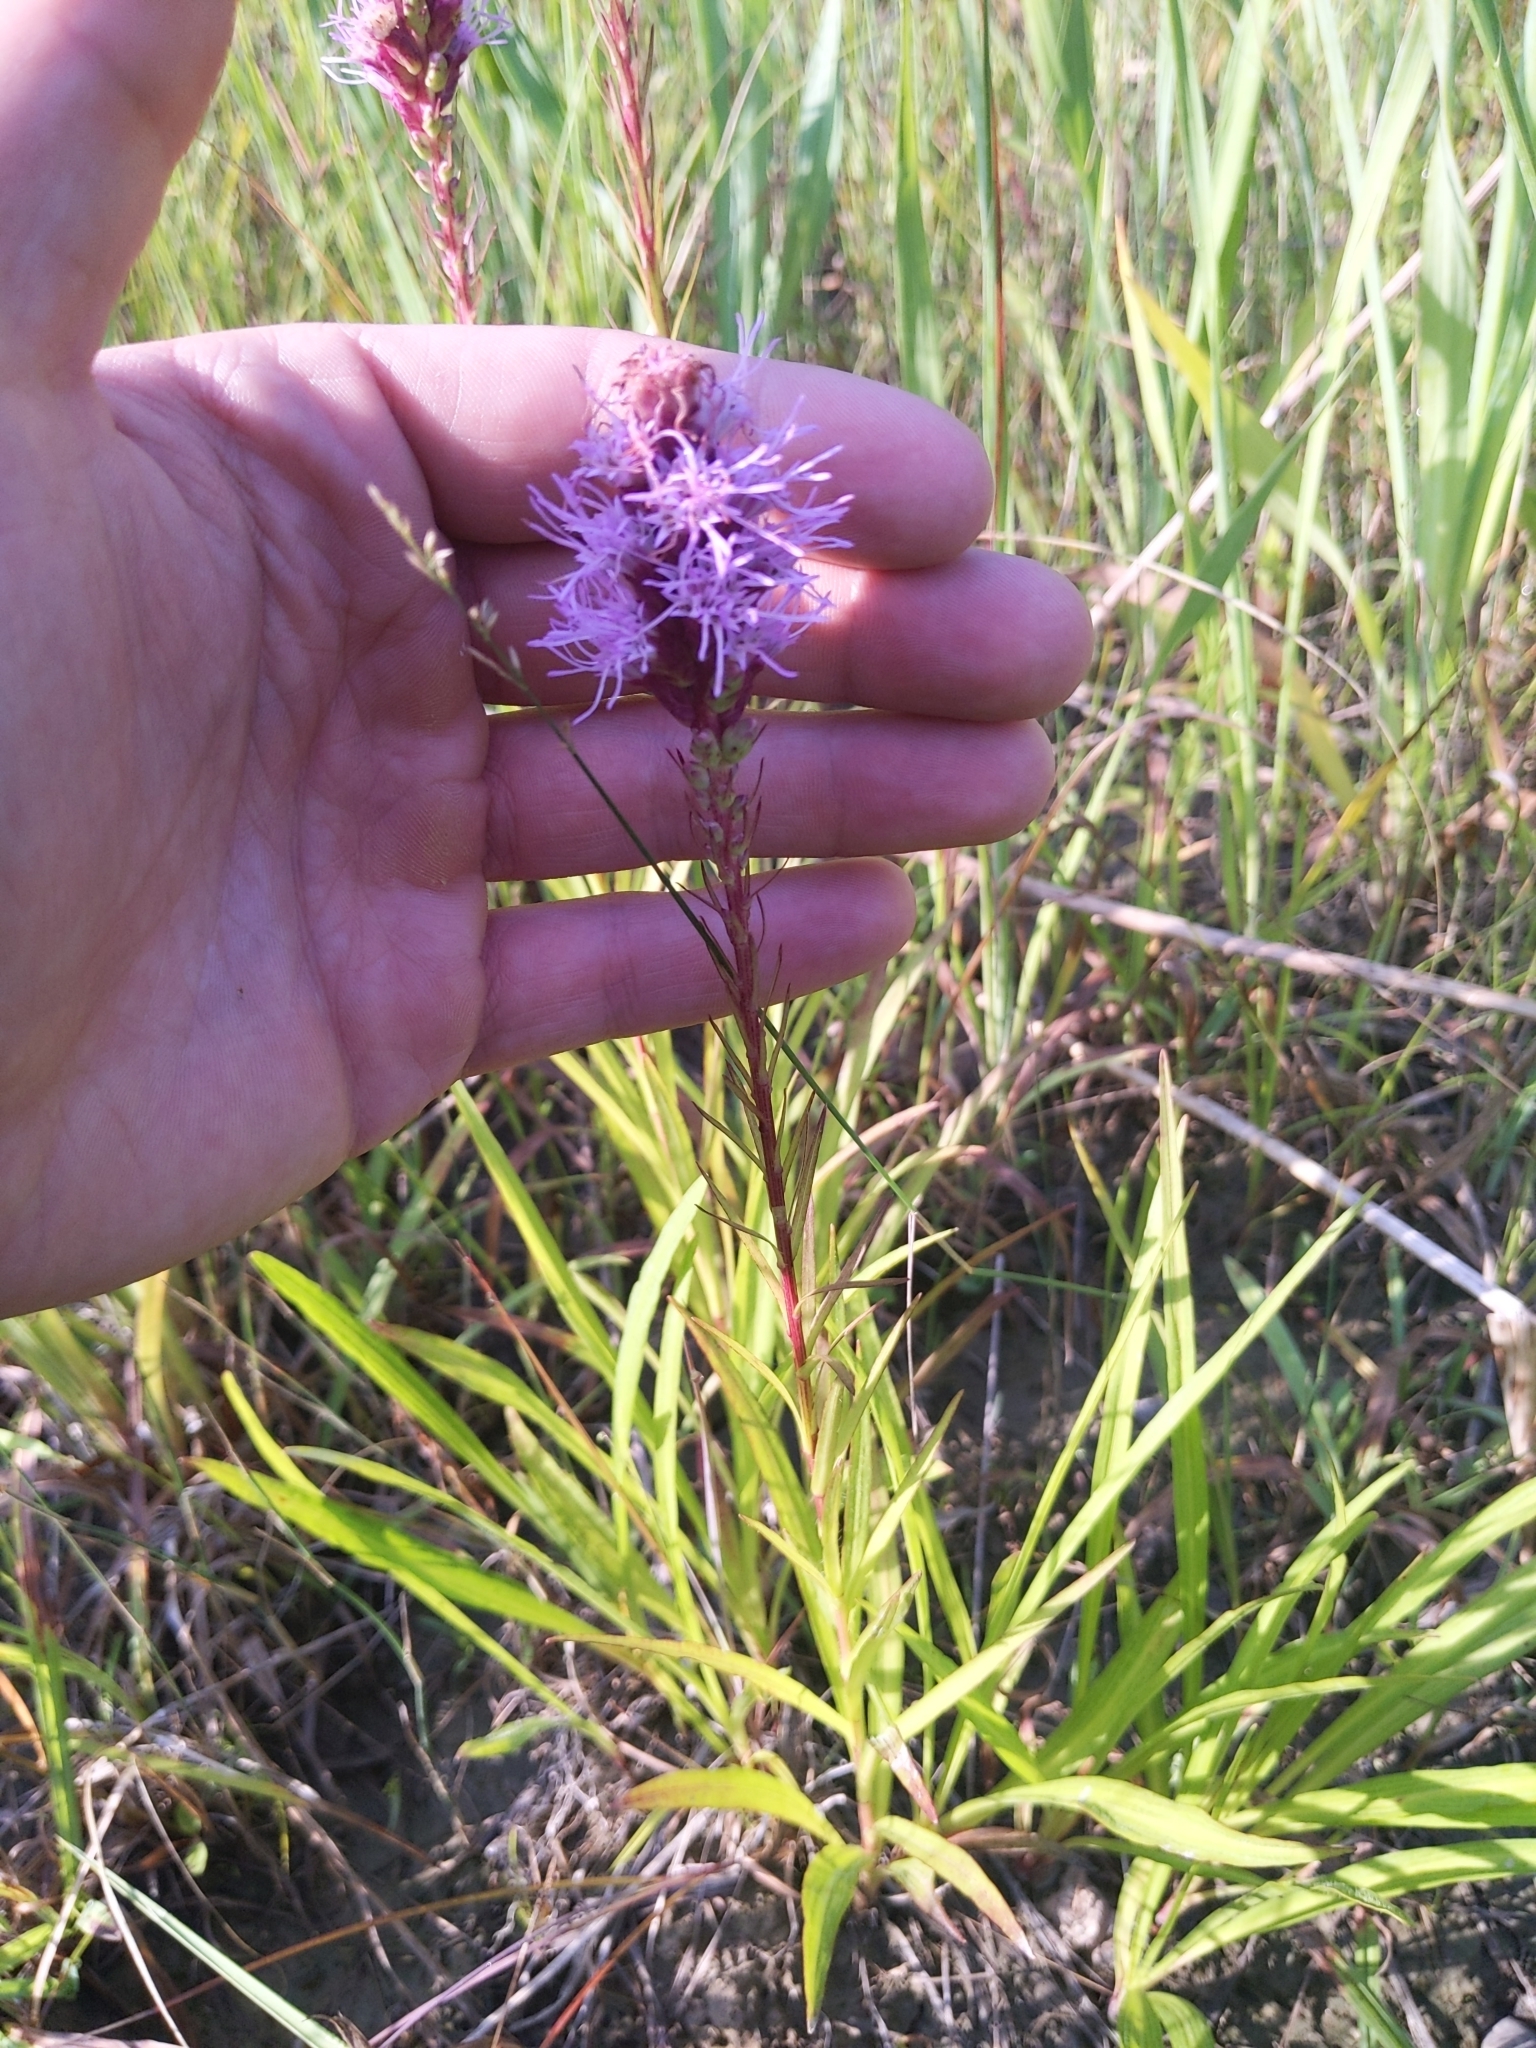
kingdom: Plantae
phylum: Tracheophyta
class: Magnoliopsida
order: Asterales
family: Asteraceae
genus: Liatris
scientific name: Liatris spicata
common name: Florist gayfeather
